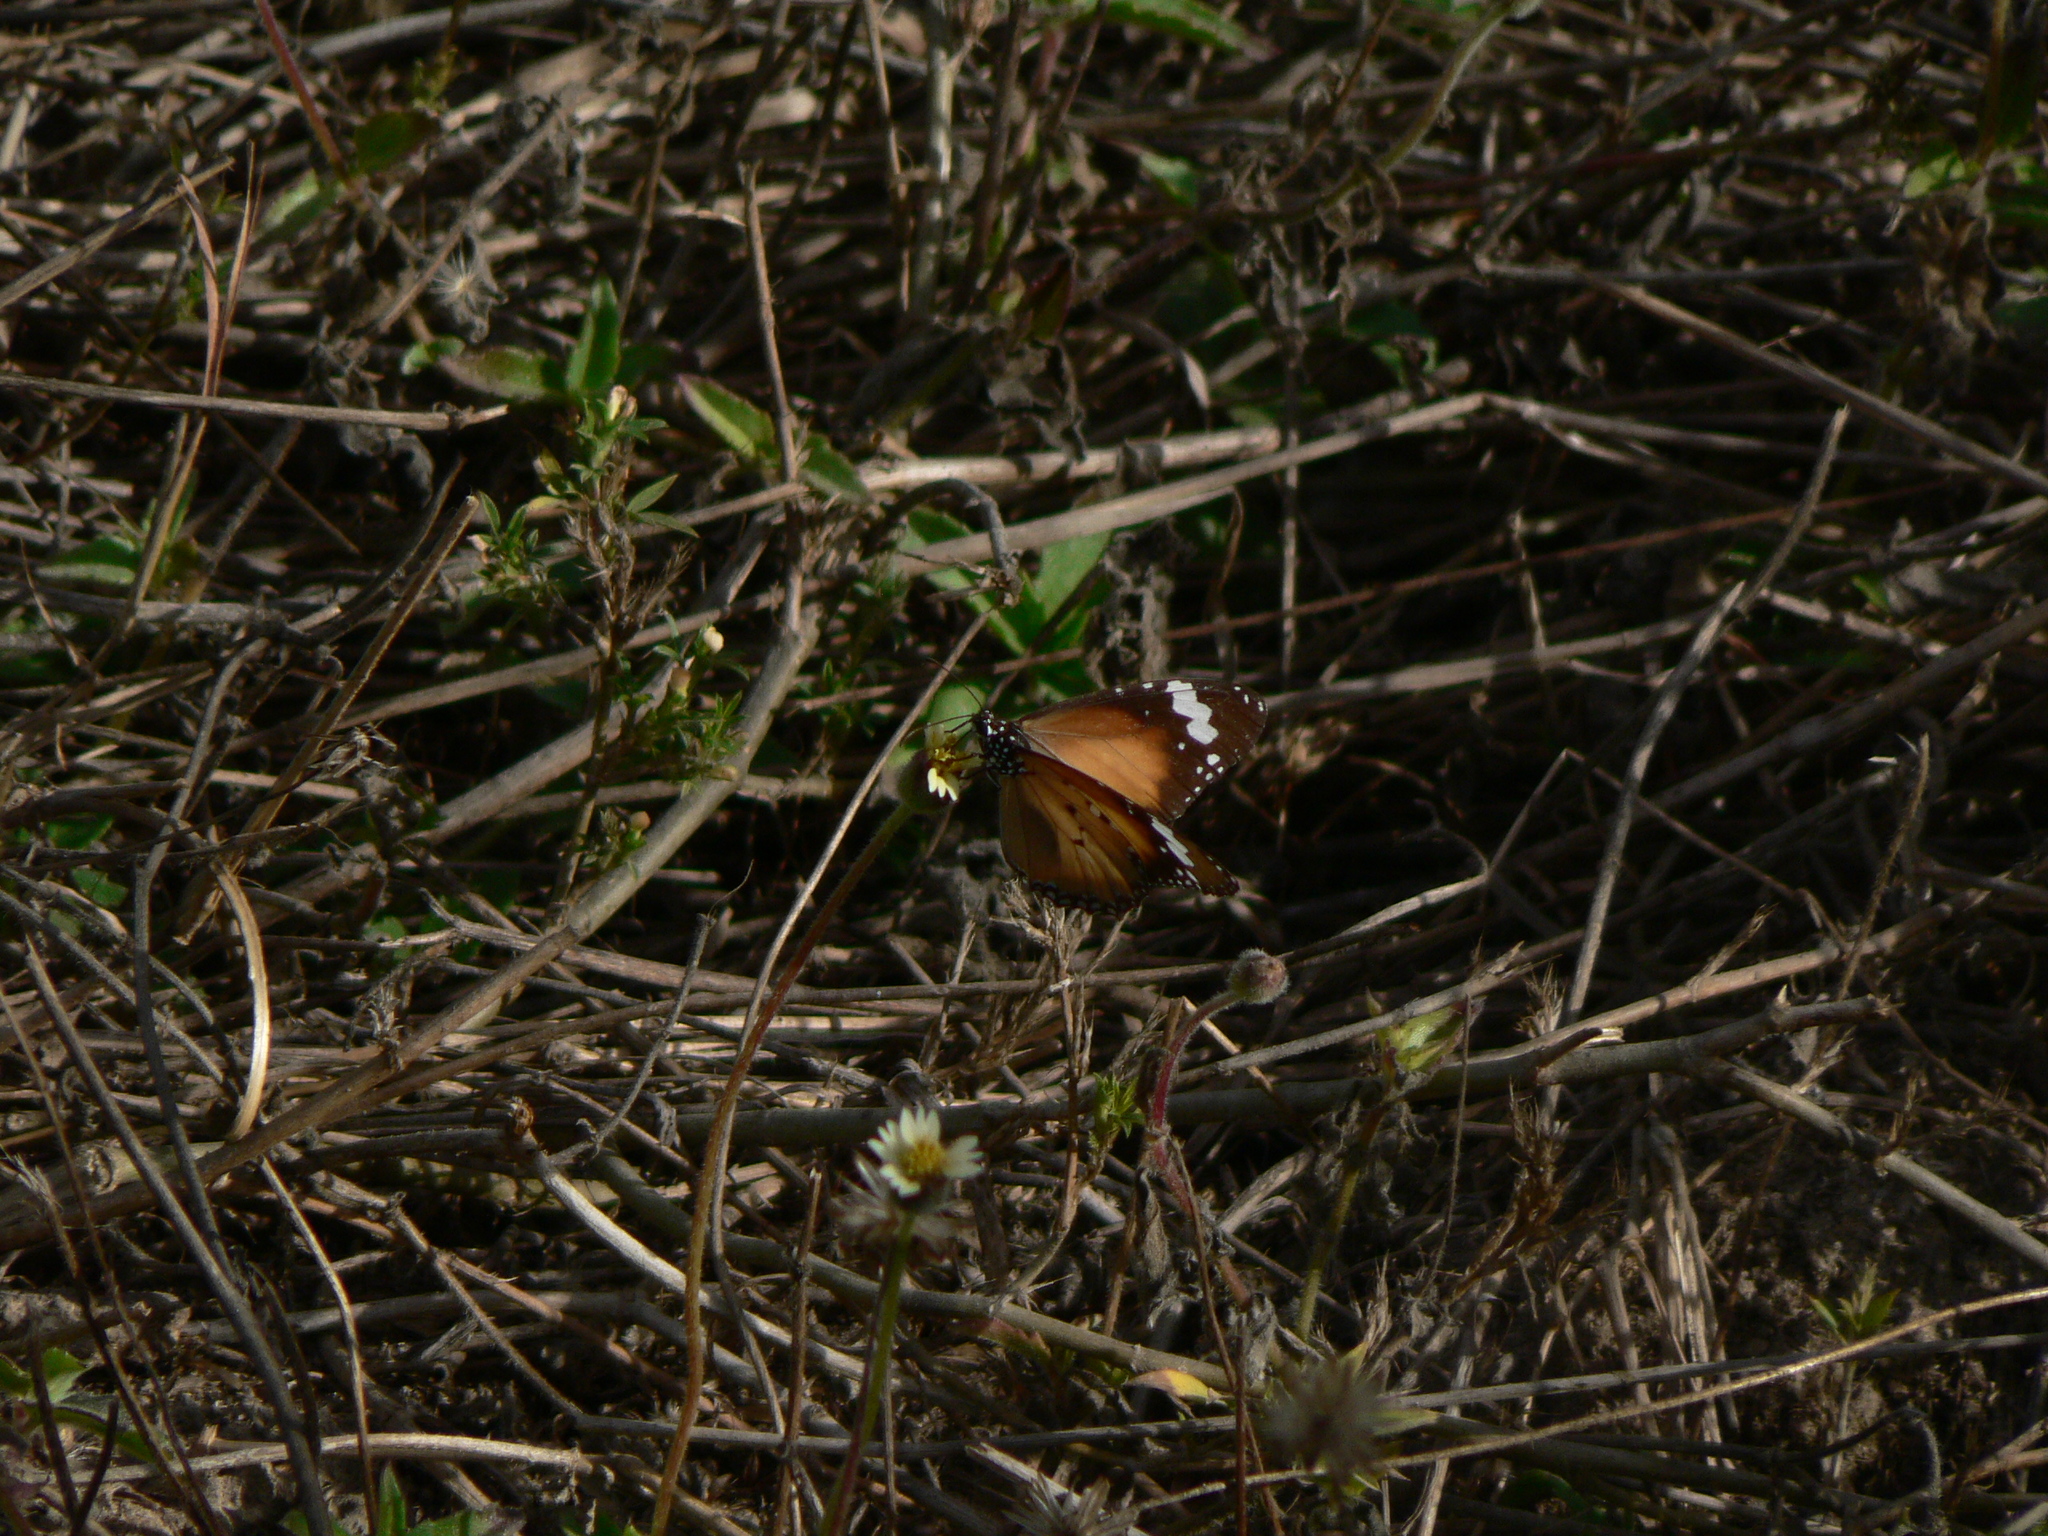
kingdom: Animalia
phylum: Arthropoda
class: Insecta
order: Lepidoptera
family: Nymphalidae
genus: Danaus
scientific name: Danaus chrysippus
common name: Plain tiger
